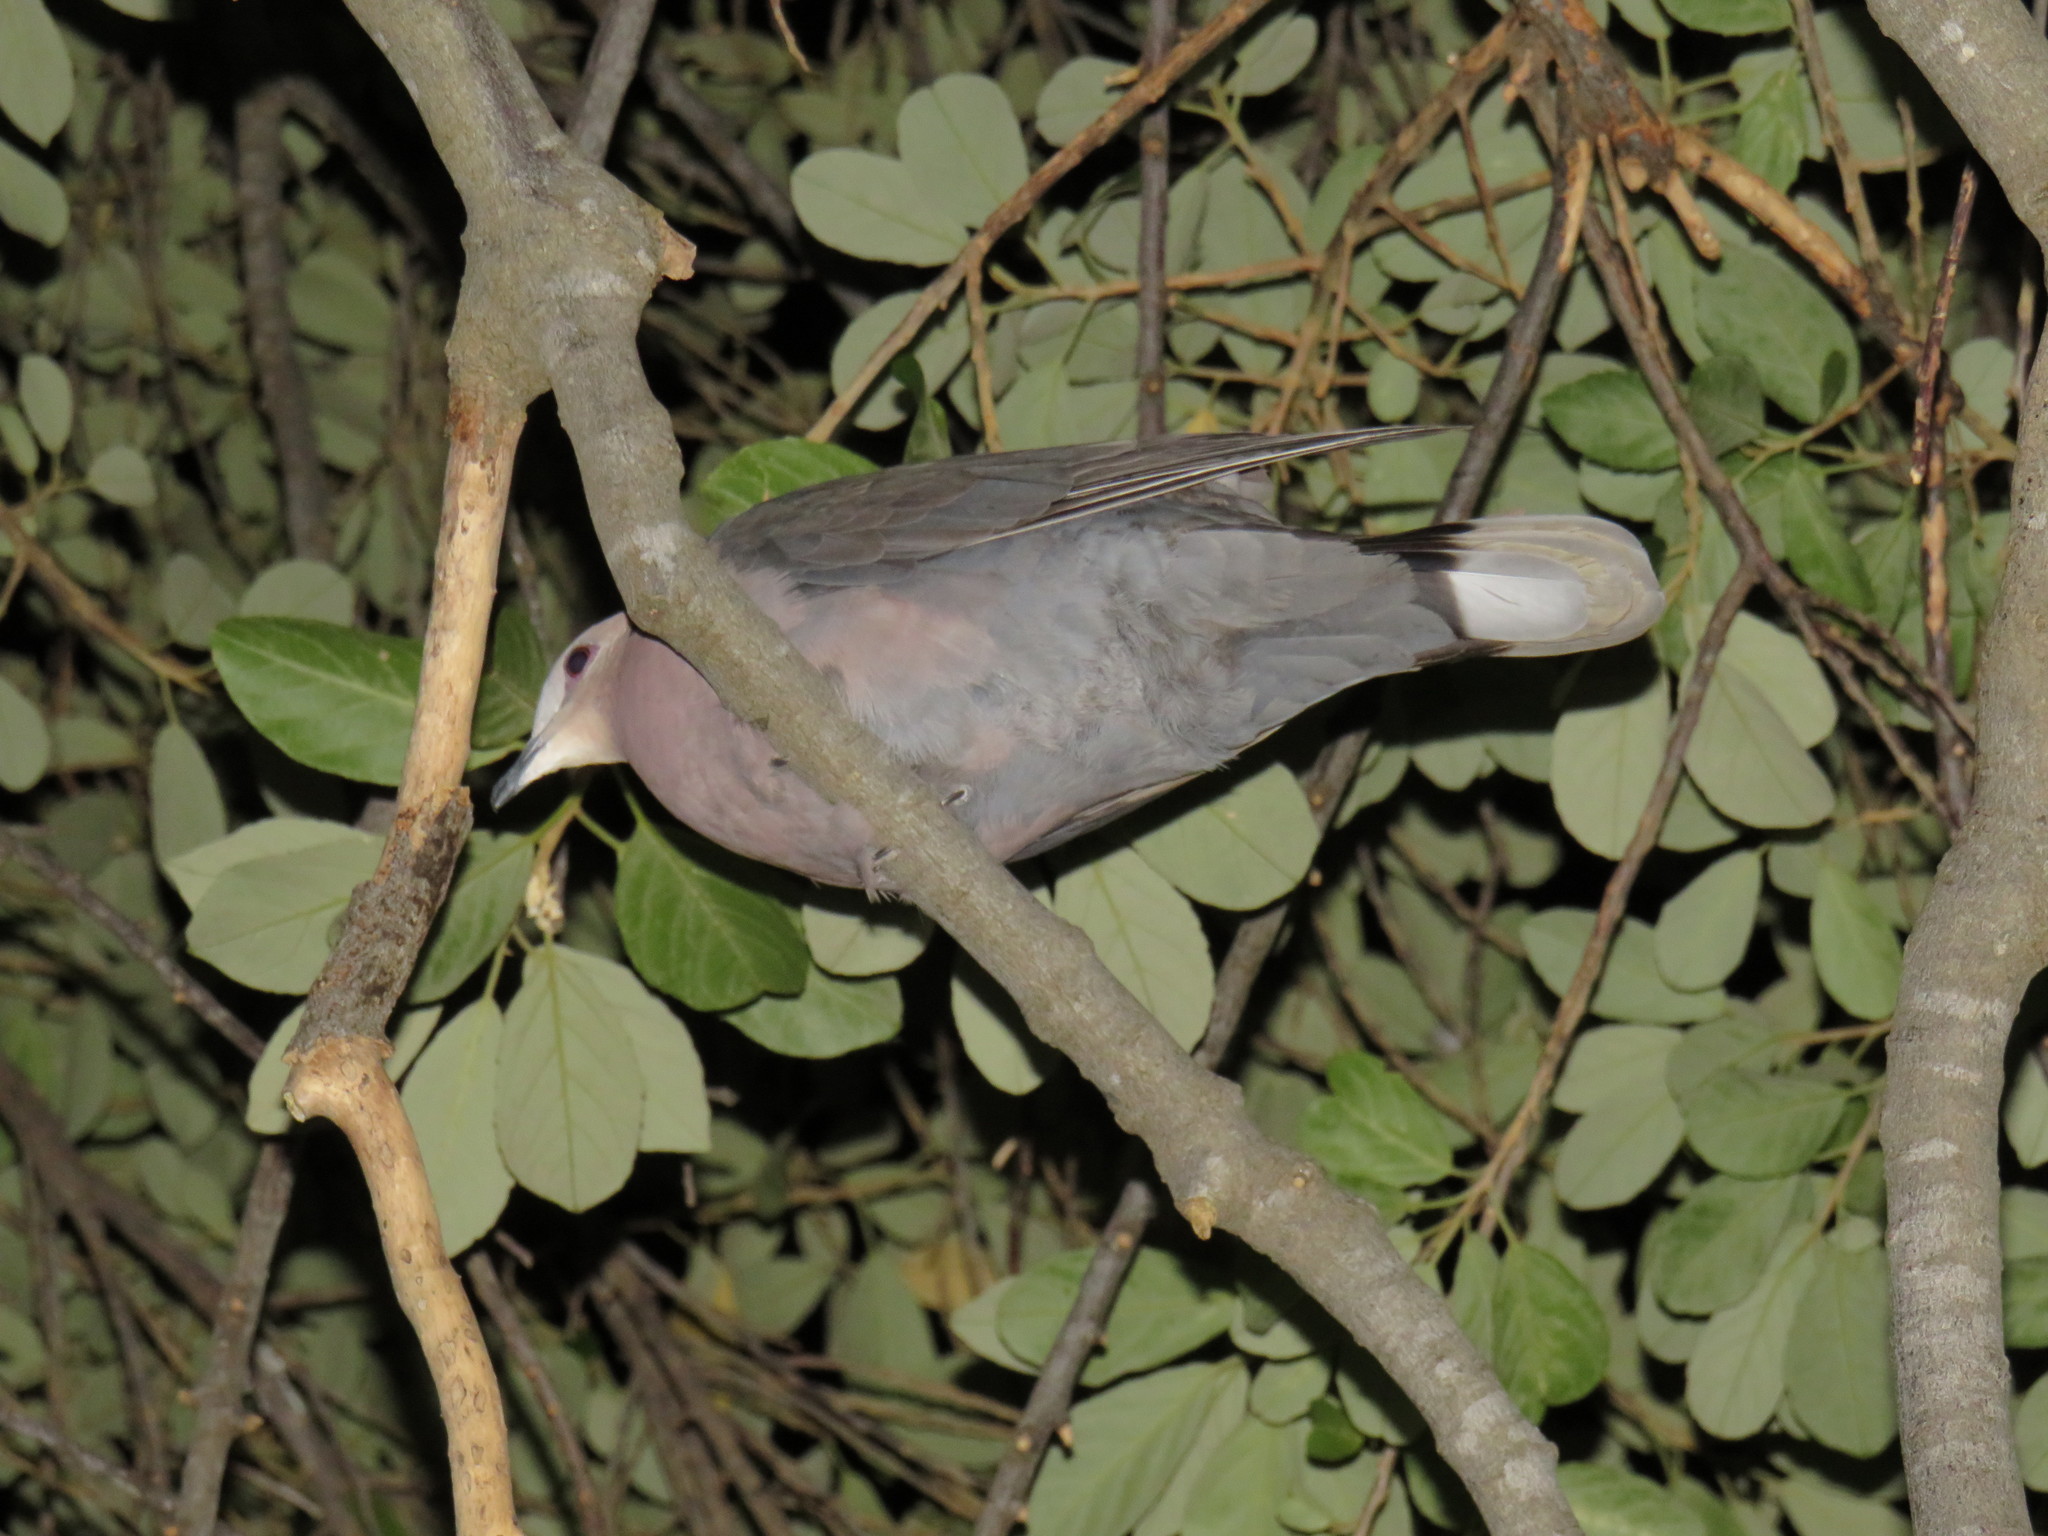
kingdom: Animalia
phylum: Chordata
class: Aves
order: Columbiformes
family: Columbidae
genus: Streptopelia
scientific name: Streptopelia semitorquata
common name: Red-eyed dove
